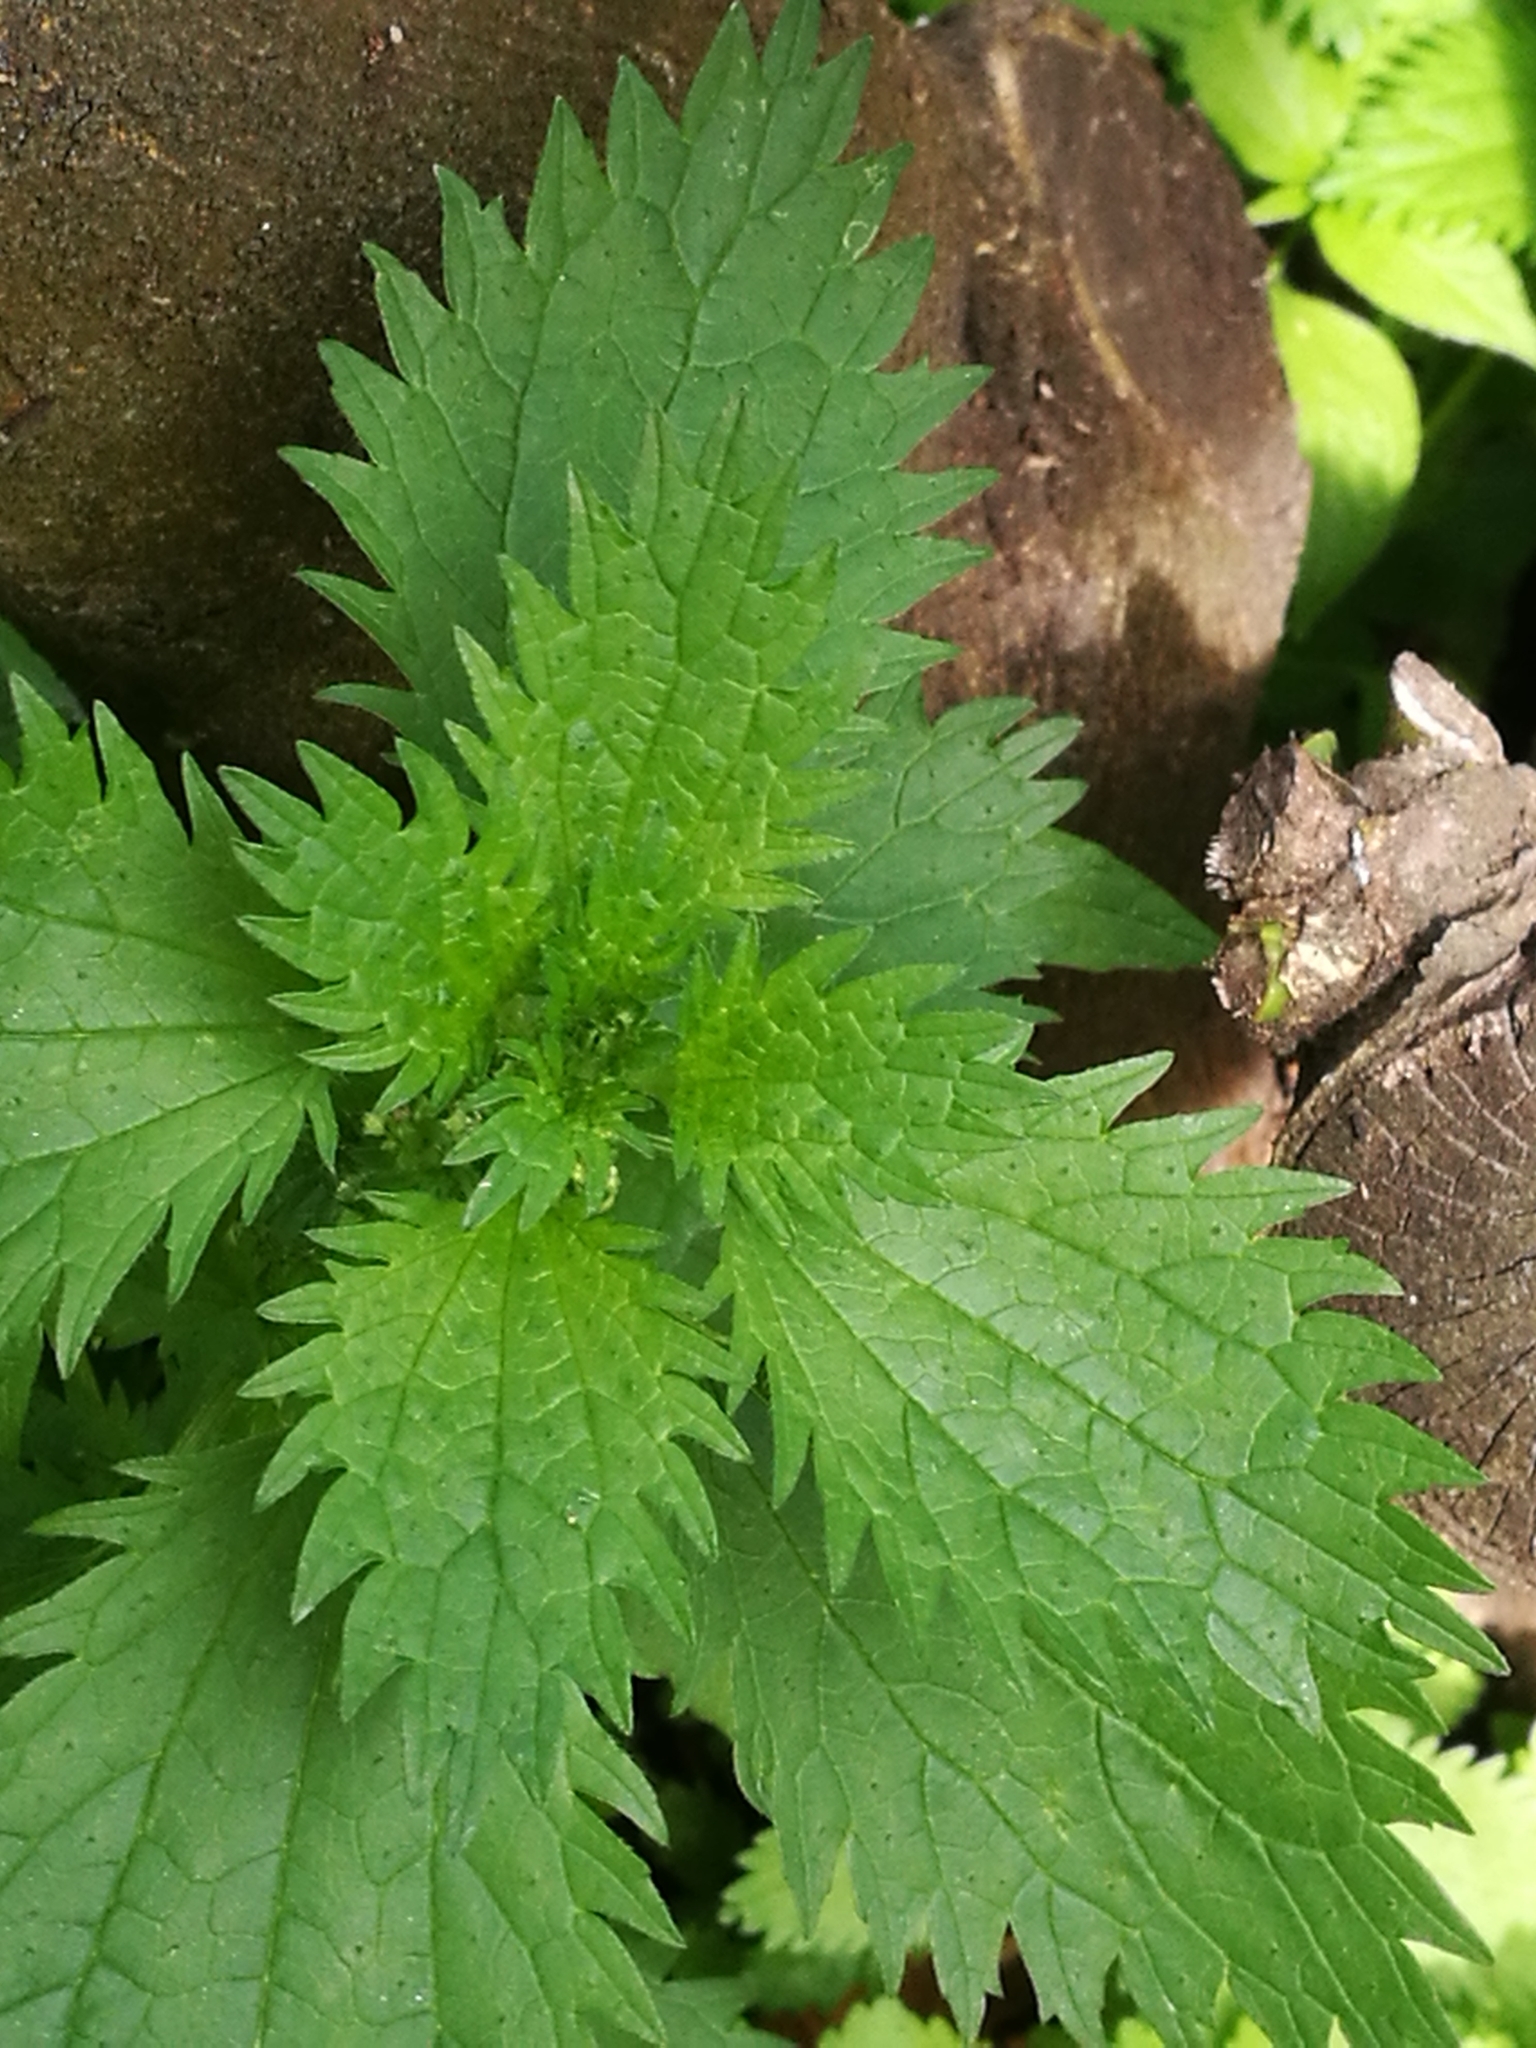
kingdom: Plantae
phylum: Tracheophyta
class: Magnoliopsida
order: Rosales
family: Urticaceae
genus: Urtica
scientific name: Urtica urens
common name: Dwarf nettle
